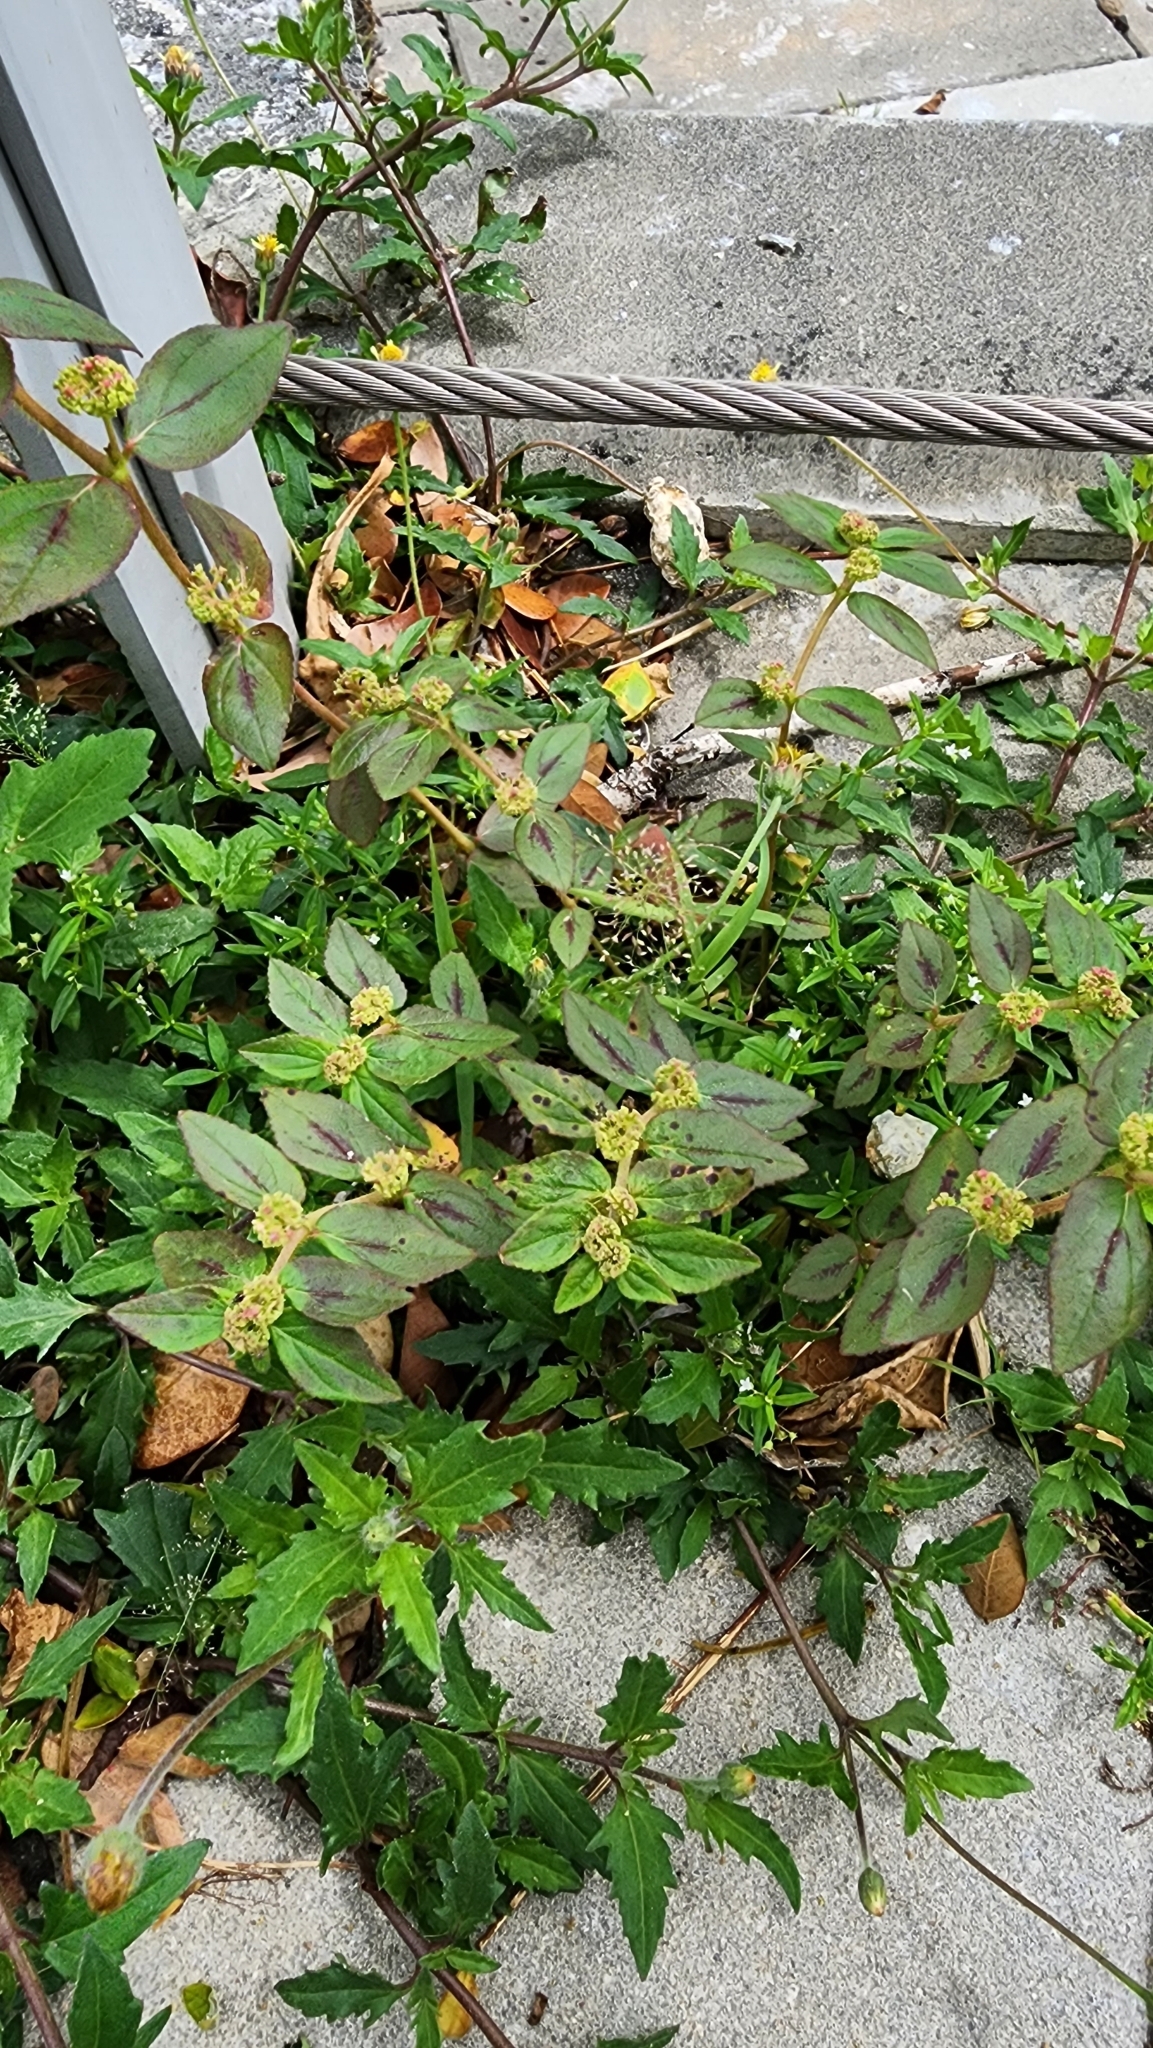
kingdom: Plantae
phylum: Tracheophyta
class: Magnoliopsida
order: Malpighiales
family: Euphorbiaceae
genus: Euphorbia
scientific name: Euphorbia hirta
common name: Pillpod sandmat
